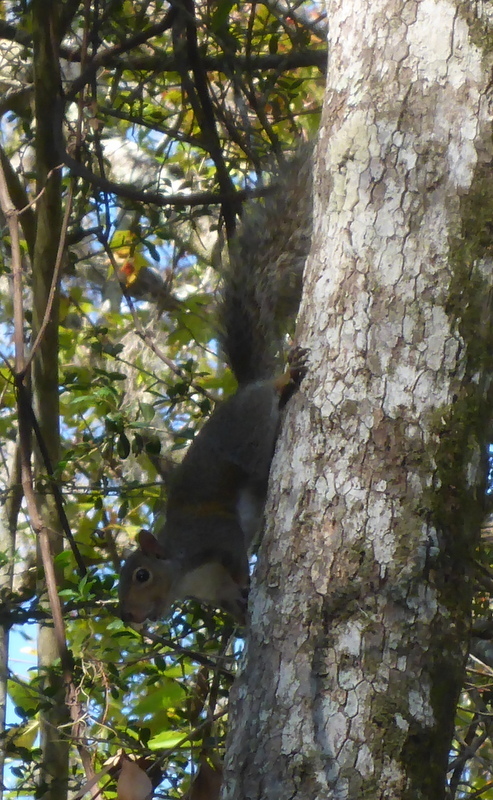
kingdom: Animalia
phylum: Chordata
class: Mammalia
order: Rodentia
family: Sciuridae
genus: Sciurus
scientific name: Sciurus carolinensis
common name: Eastern gray squirrel
